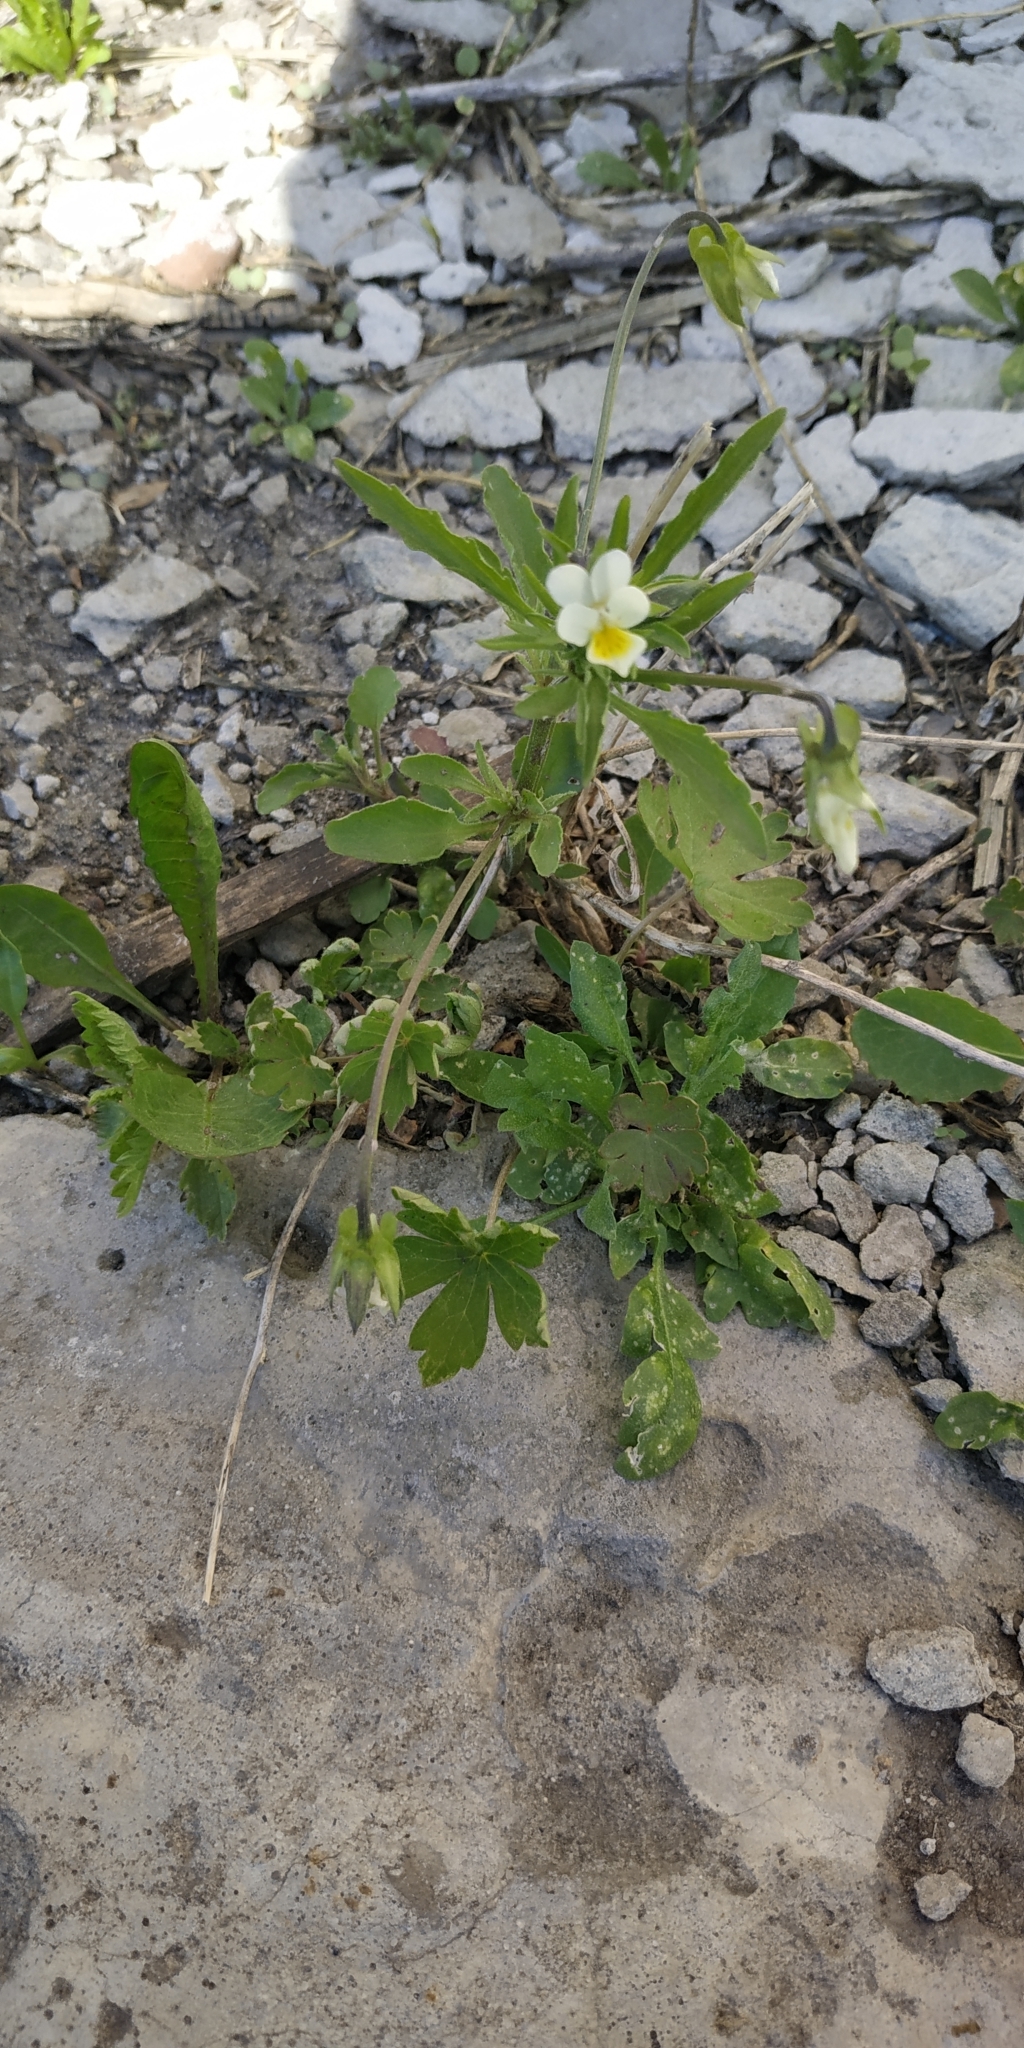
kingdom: Plantae
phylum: Tracheophyta
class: Magnoliopsida
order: Malpighiales
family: Violaceae
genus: Viola
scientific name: Viola arvensis
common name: Field pansy
